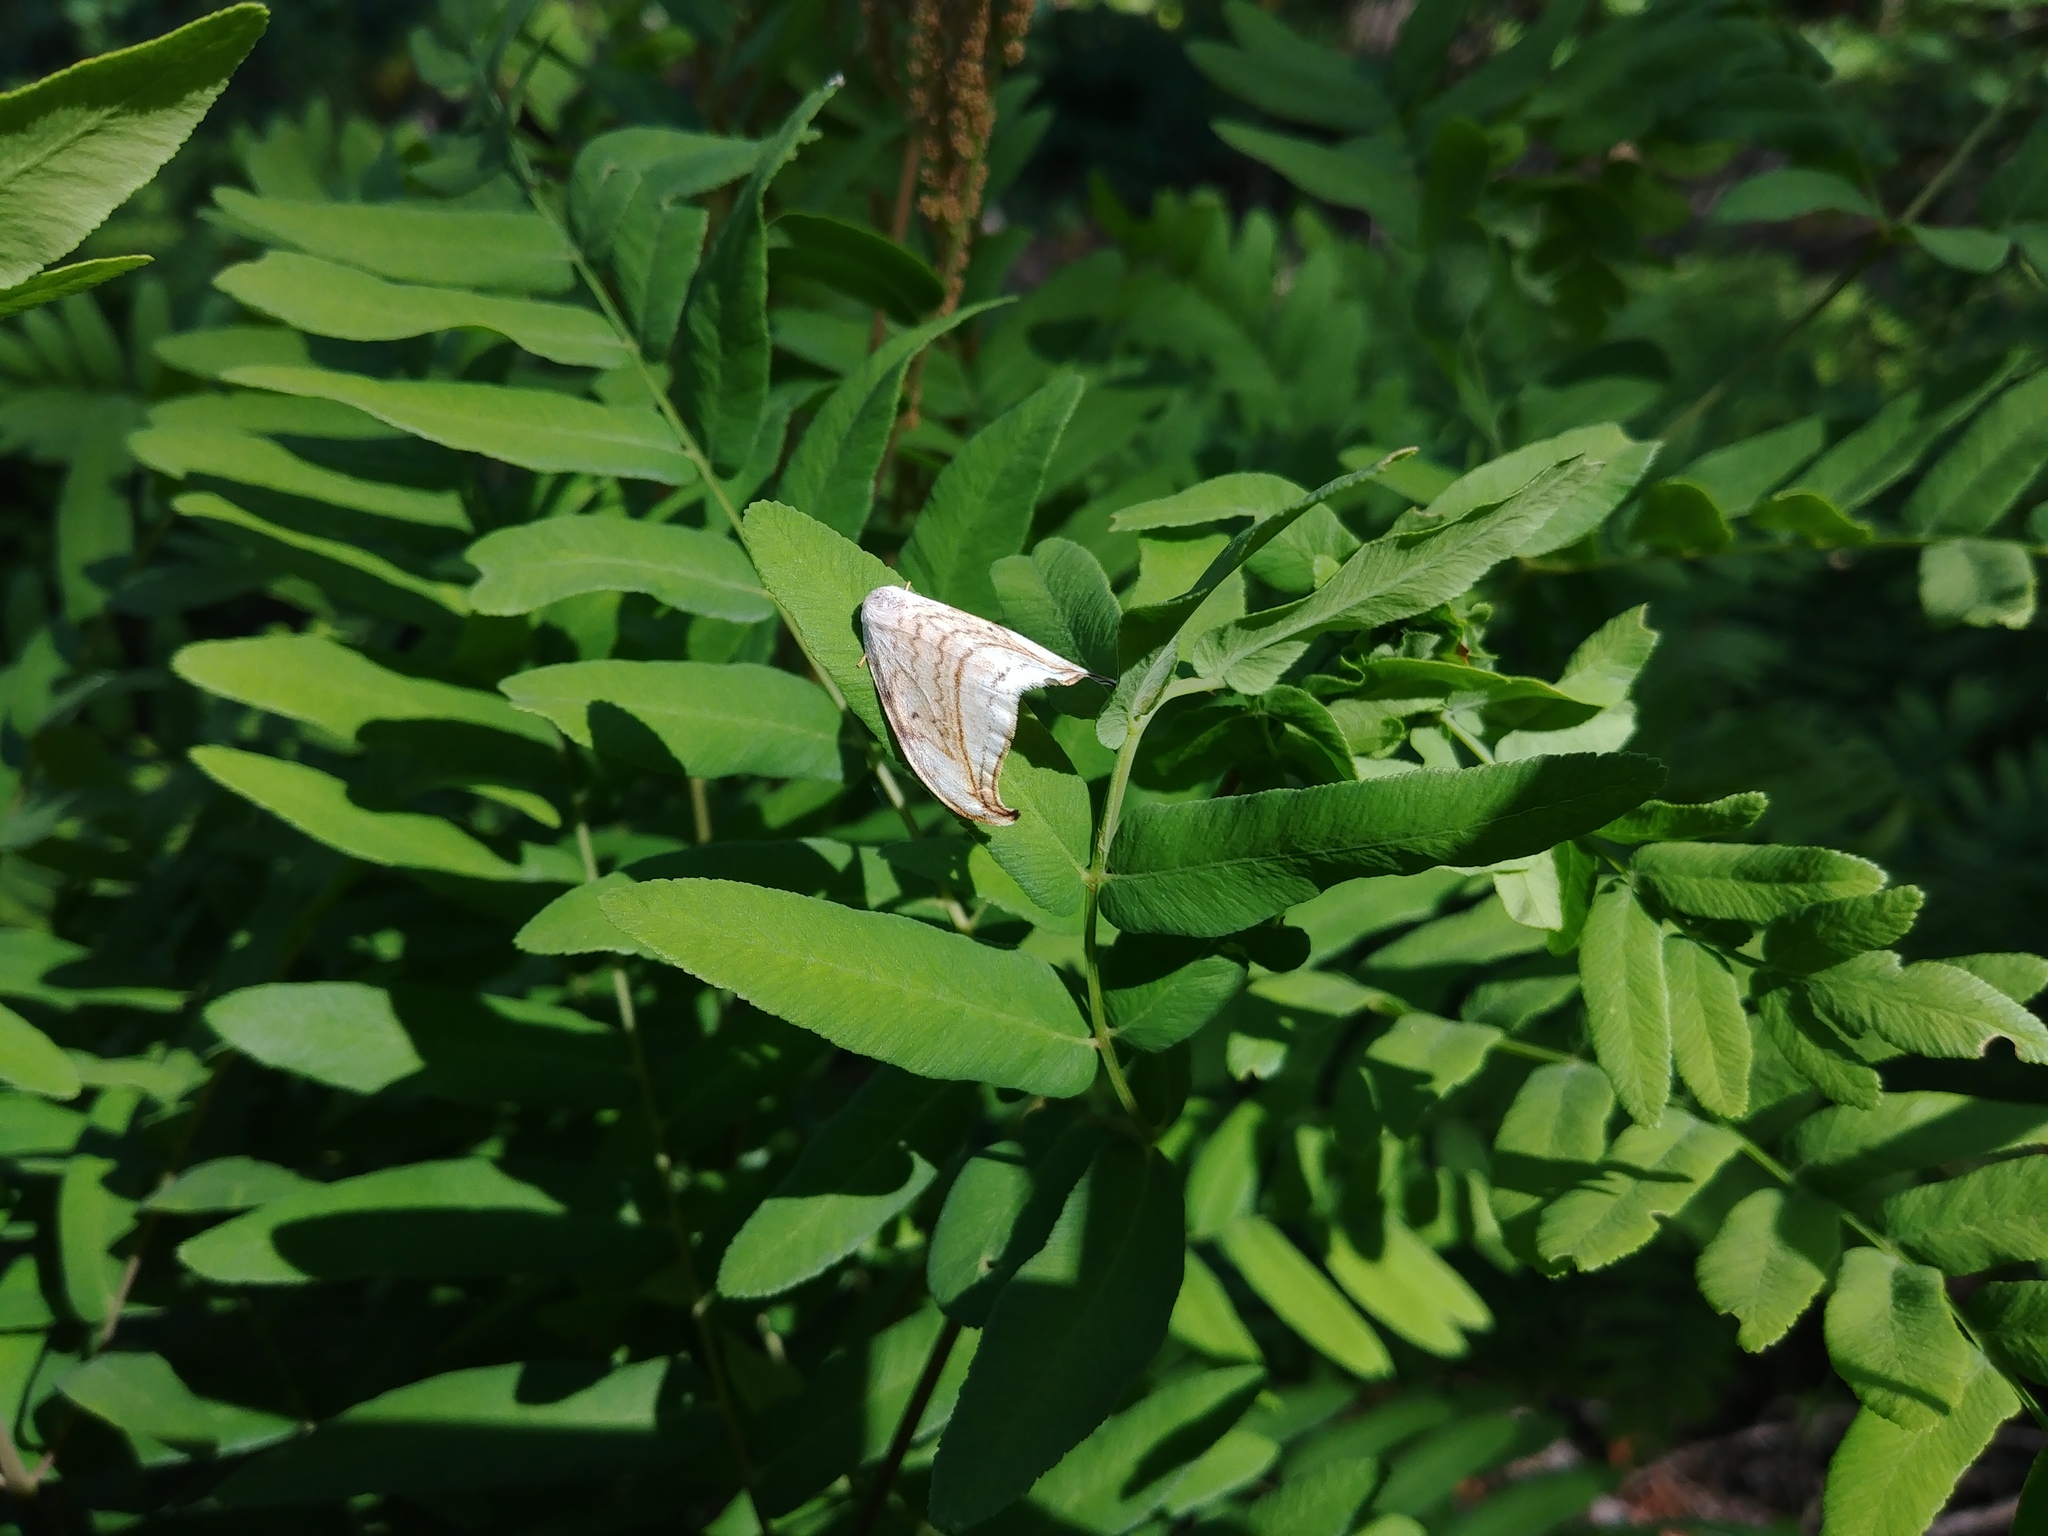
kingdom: Animalia
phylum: Arthropoda
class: Insecta
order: Lepidoptera
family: Drepanidae
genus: Drepana
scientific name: Drepana arcuata
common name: Arched hooktip moth
